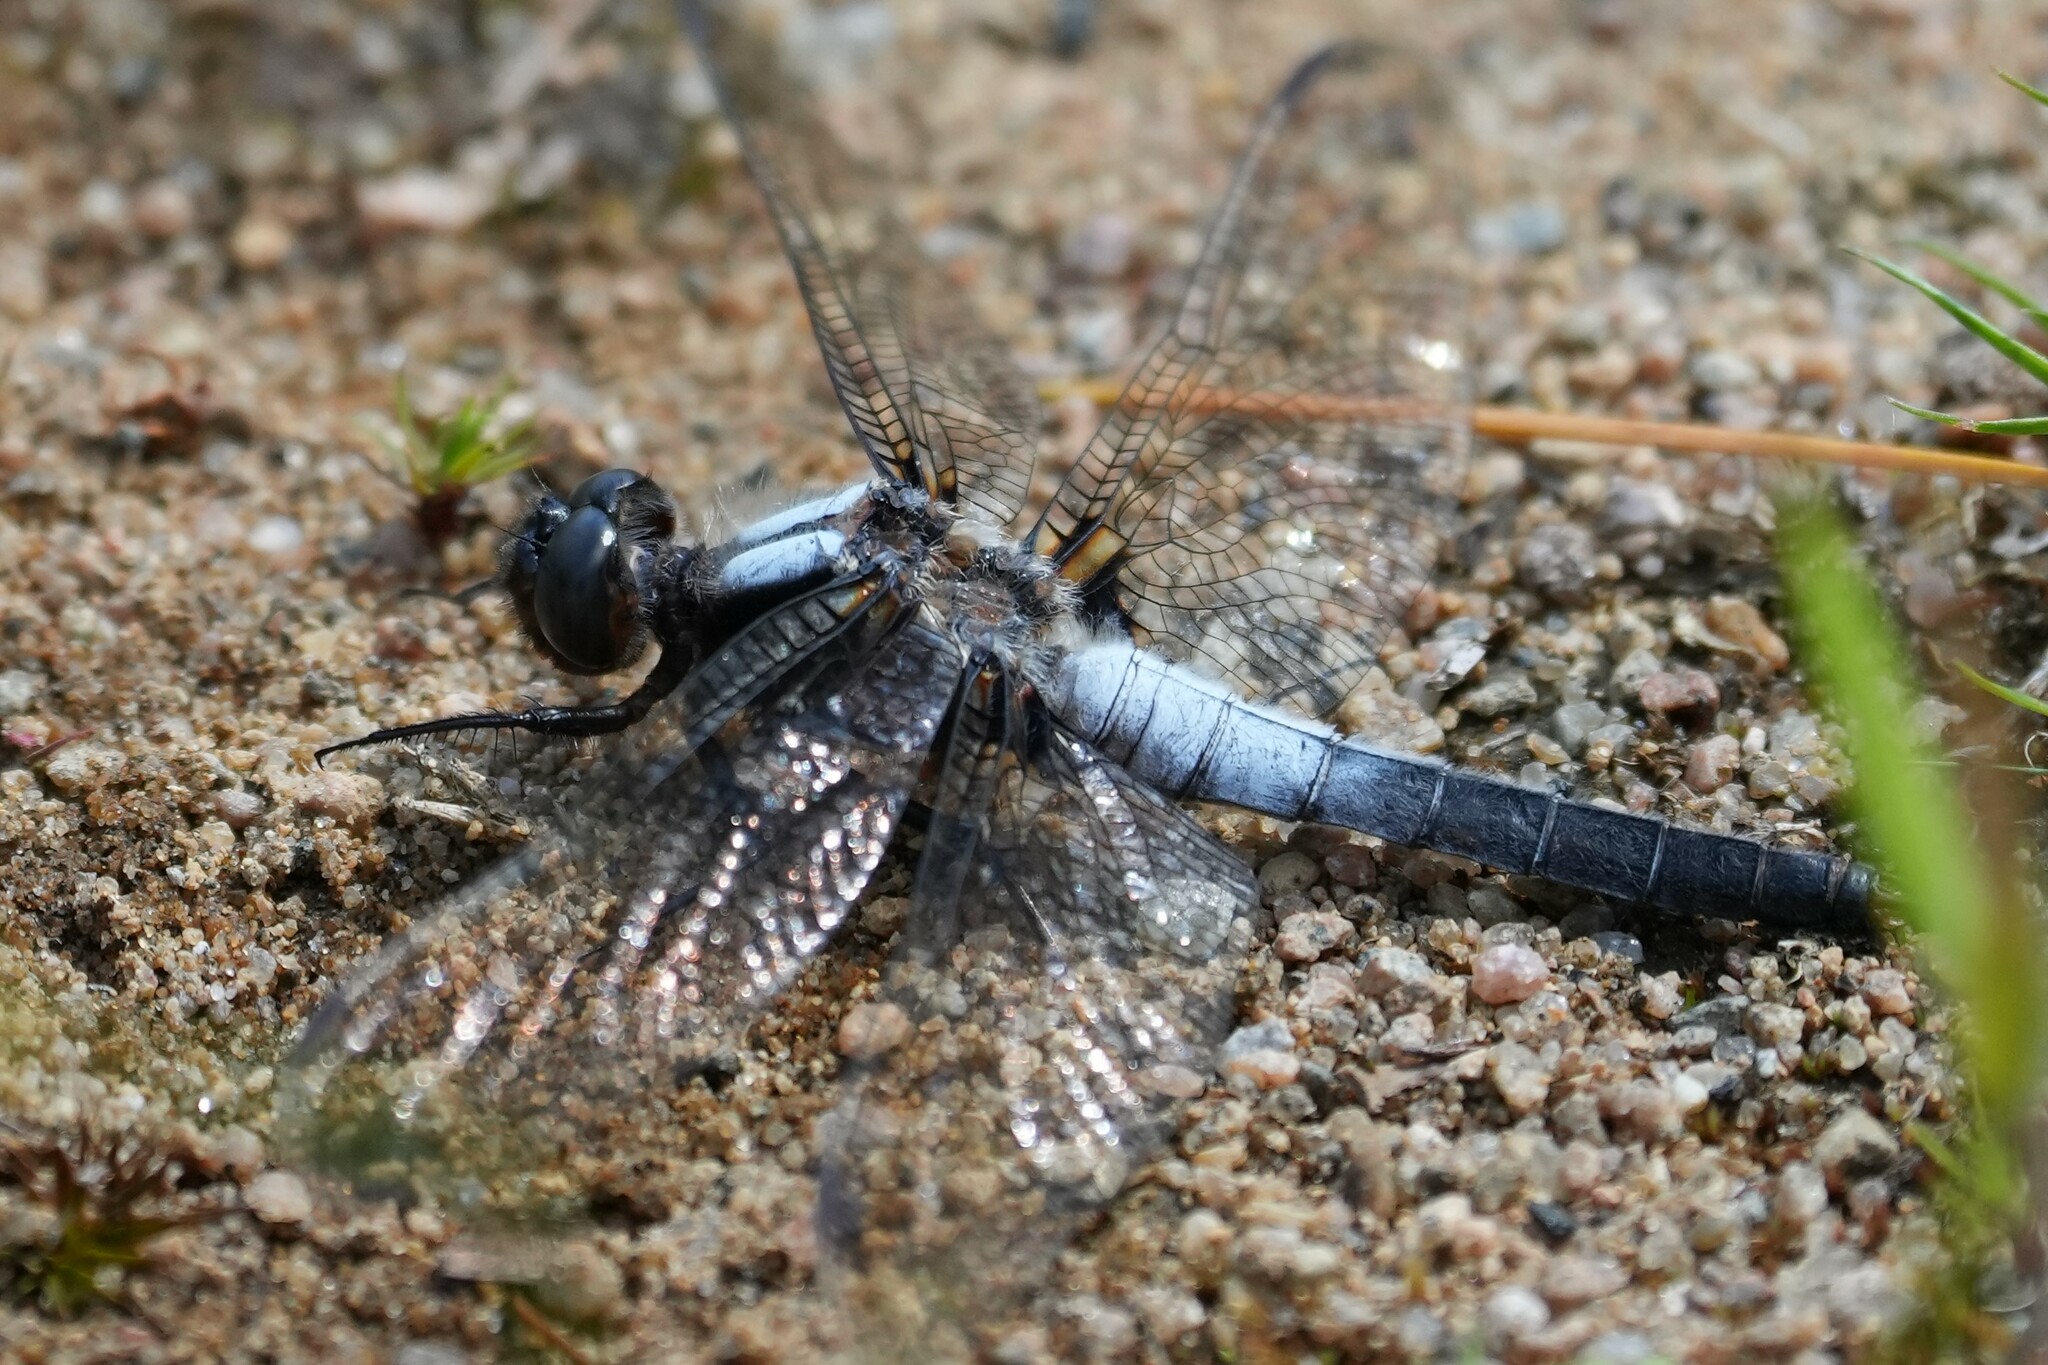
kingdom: Animalia
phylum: Arthropoda
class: Insecta
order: Odonata
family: Libellulidae
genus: Ladona
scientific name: Ladona julia
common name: Chalk-fronted corporal
